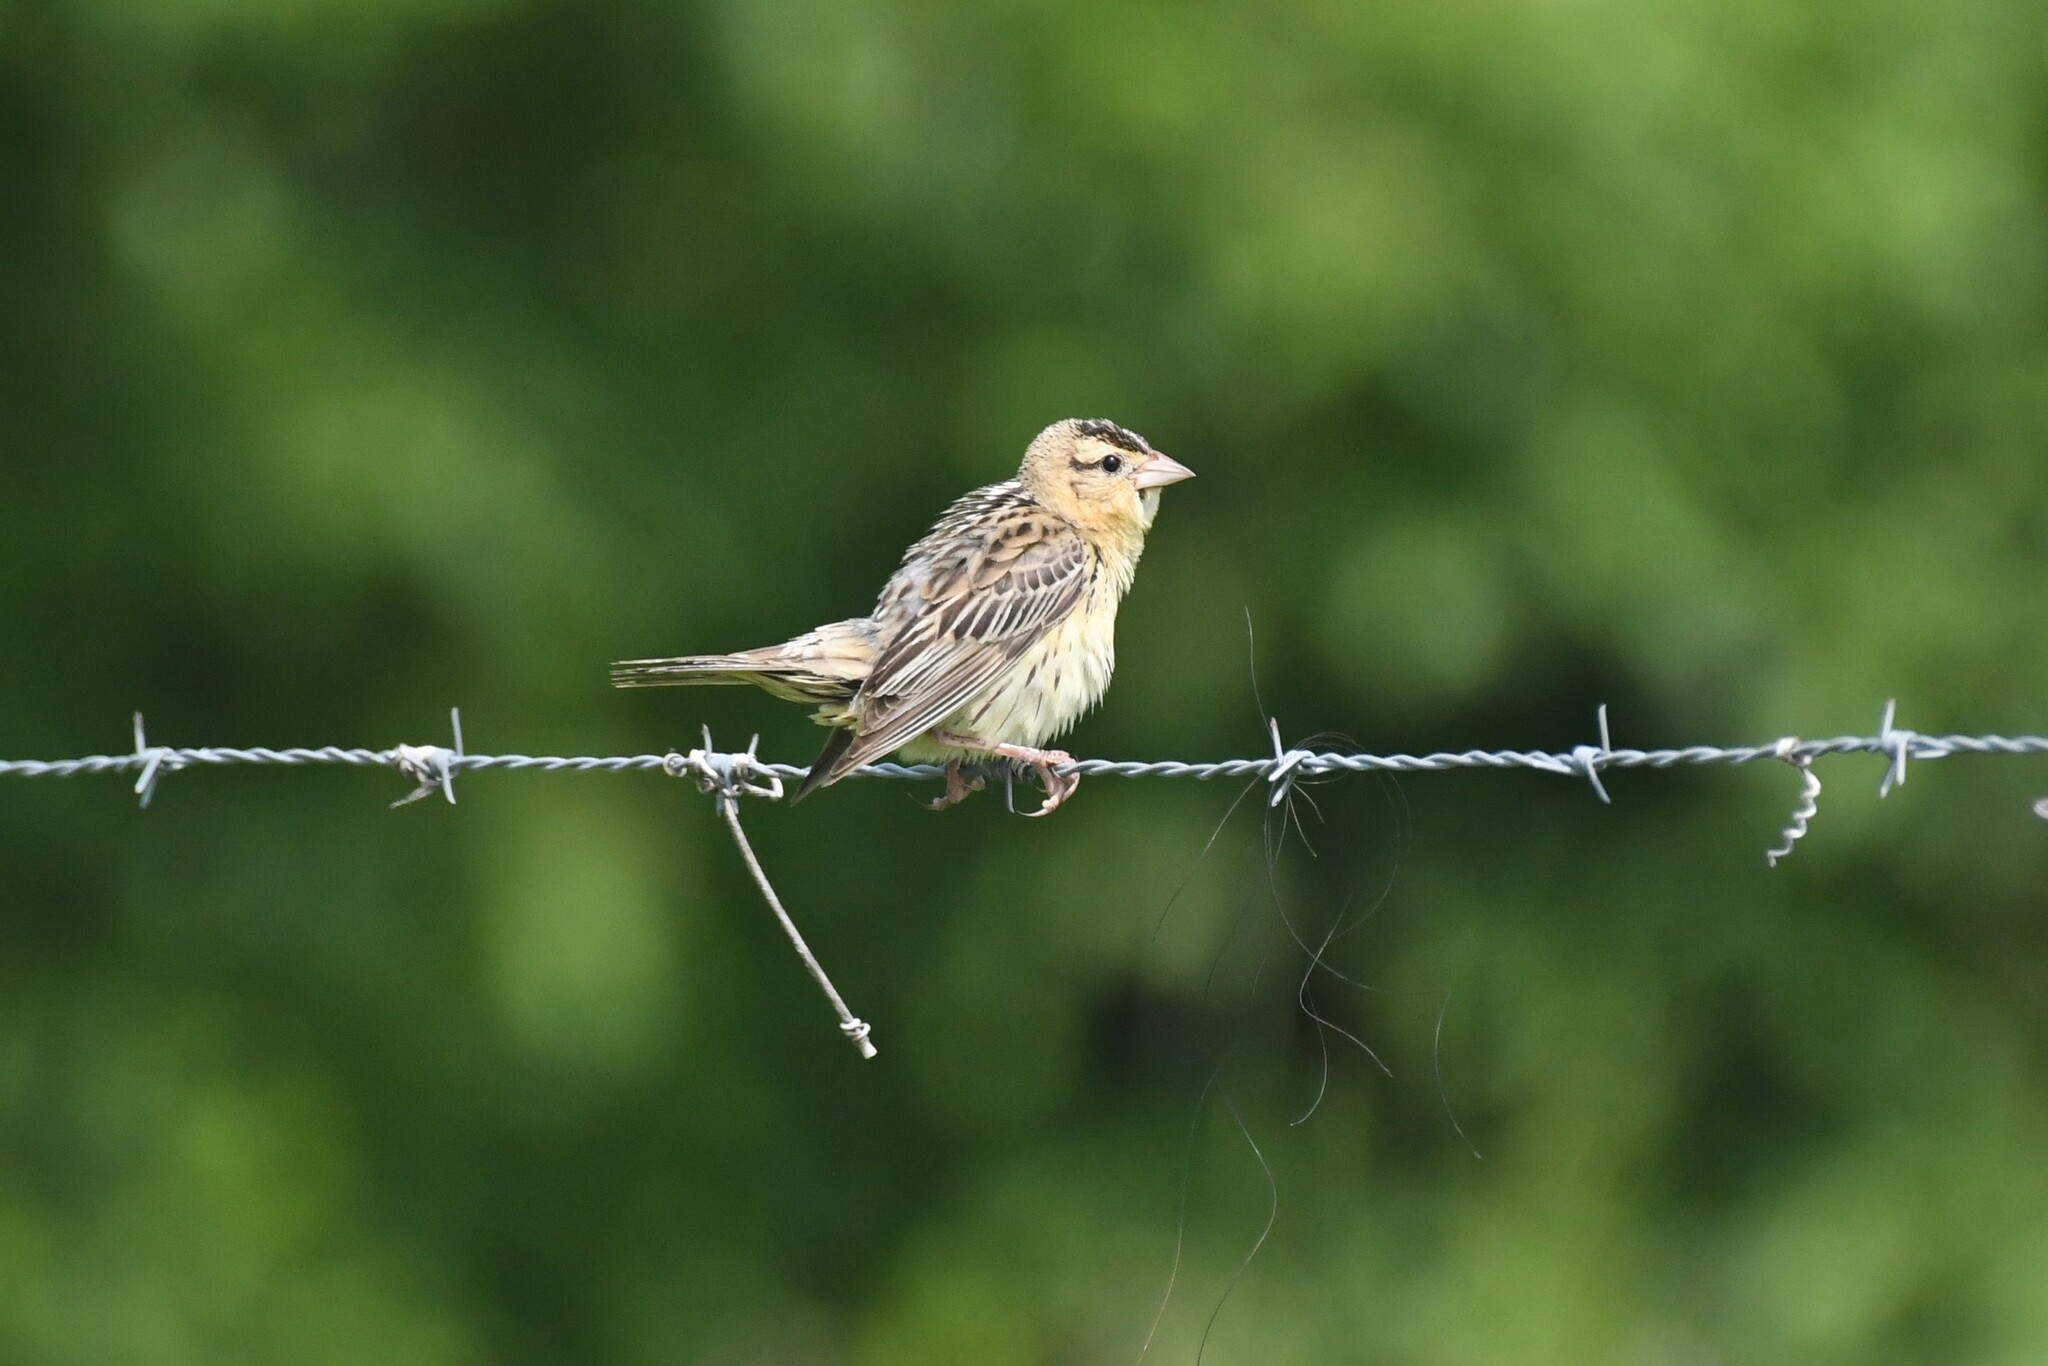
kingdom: Animalia
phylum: Chordata
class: Aves
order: Passeriformes
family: Icteridae
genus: Dolichonyx
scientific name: Dolichonyx oryzivorus
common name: Bobolink
